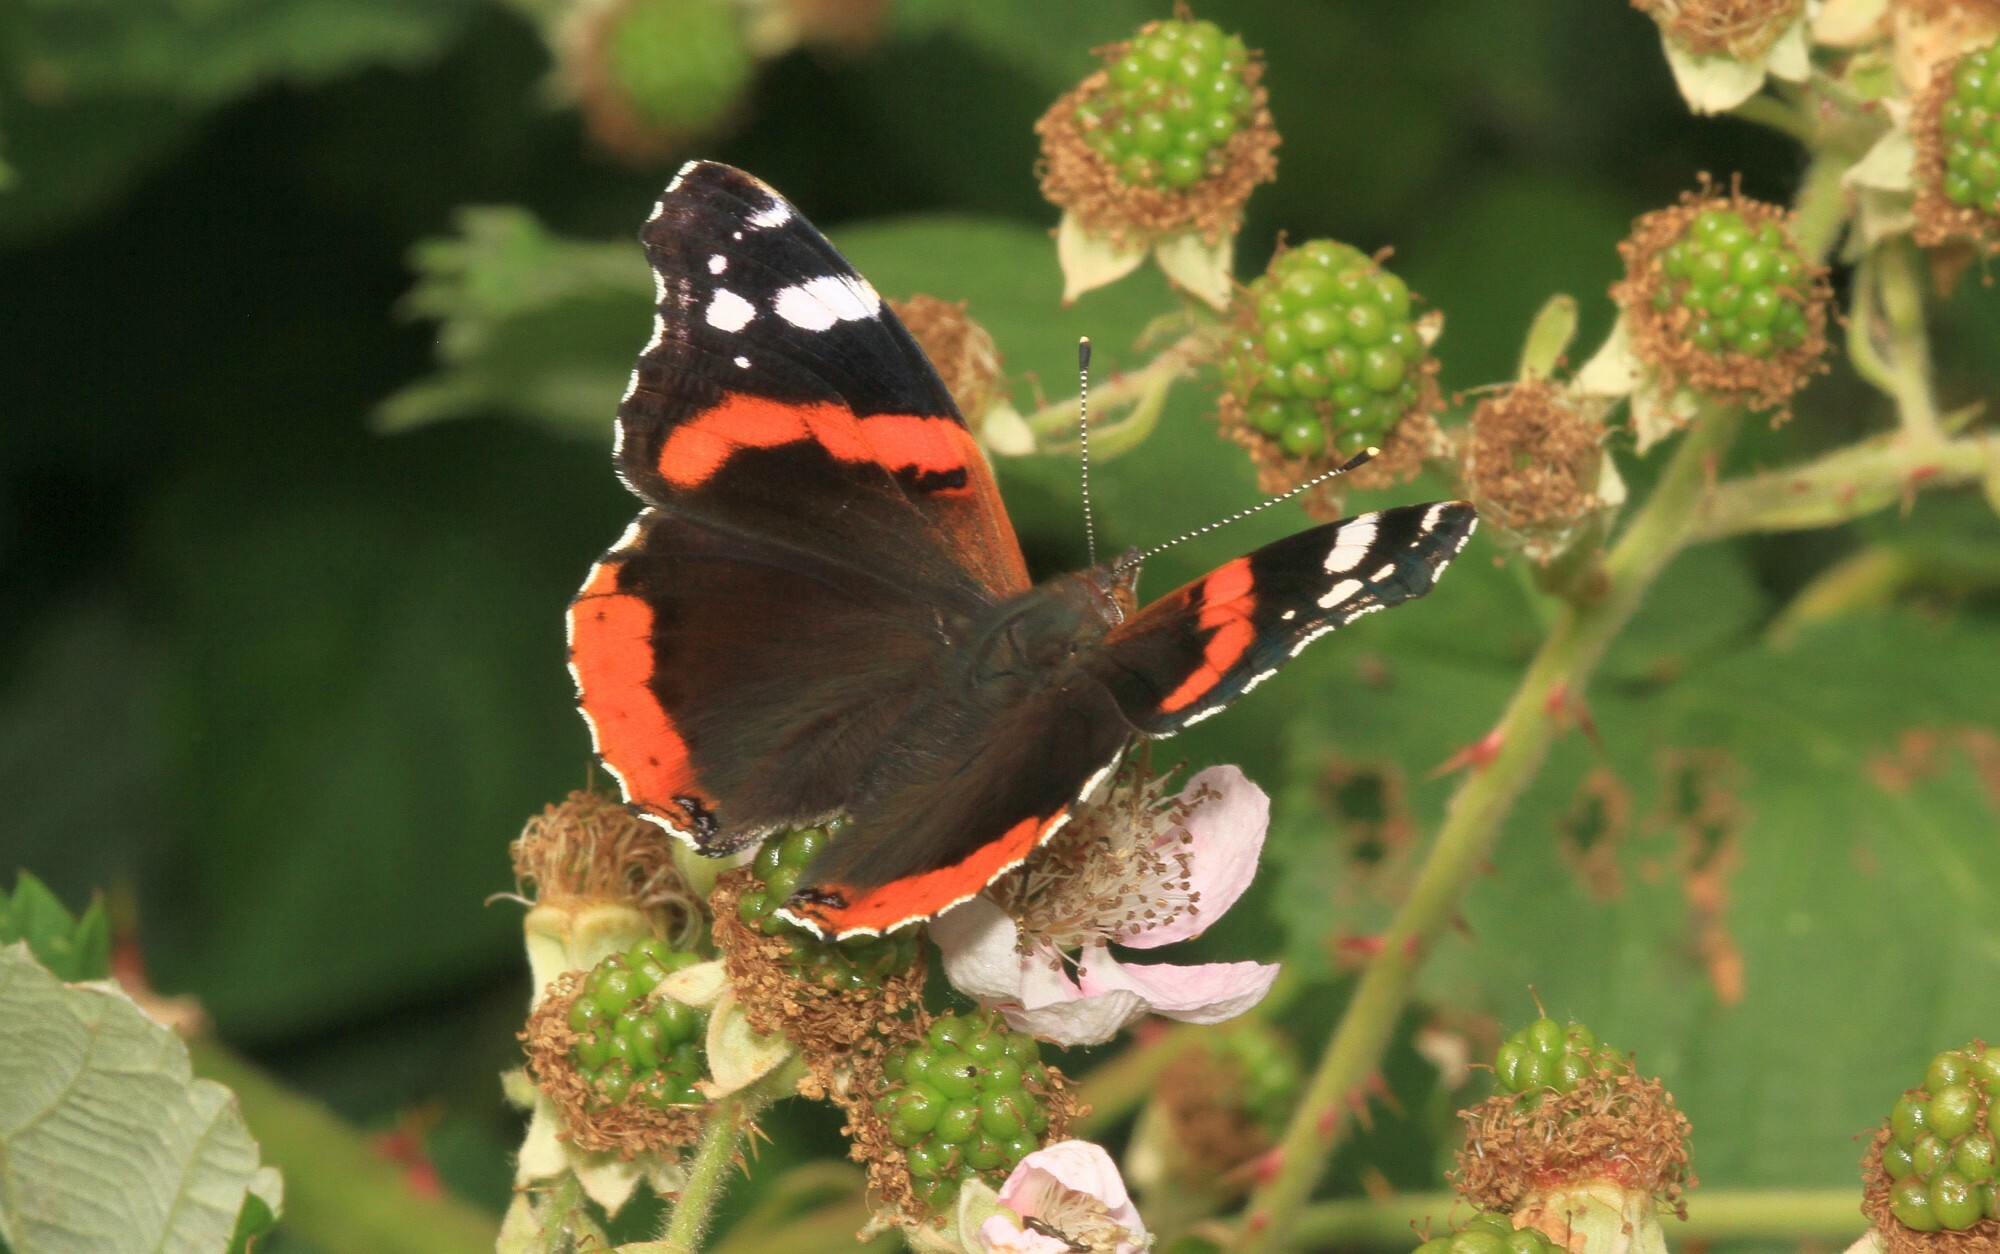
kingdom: Animalia
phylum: Arthropoda
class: Insecta
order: Lepidoptera
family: Nymphalidae
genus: Vanessa
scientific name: Vanessa atalanta
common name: Red admiral
